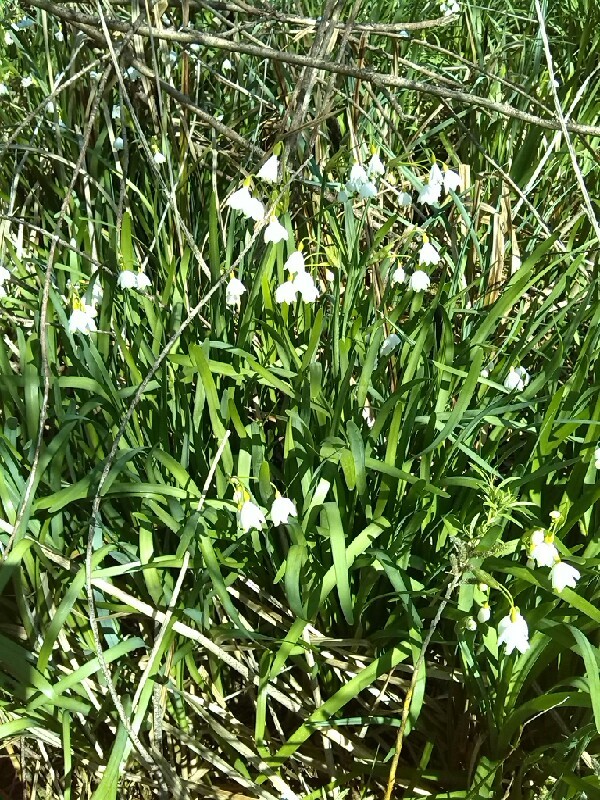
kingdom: Plantae
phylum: Tracheophyta
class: Liliopsida
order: Asparagales
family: Amaryllidaceae
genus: Leucojum
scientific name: Leucojum aestivum
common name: Summer snowflake
